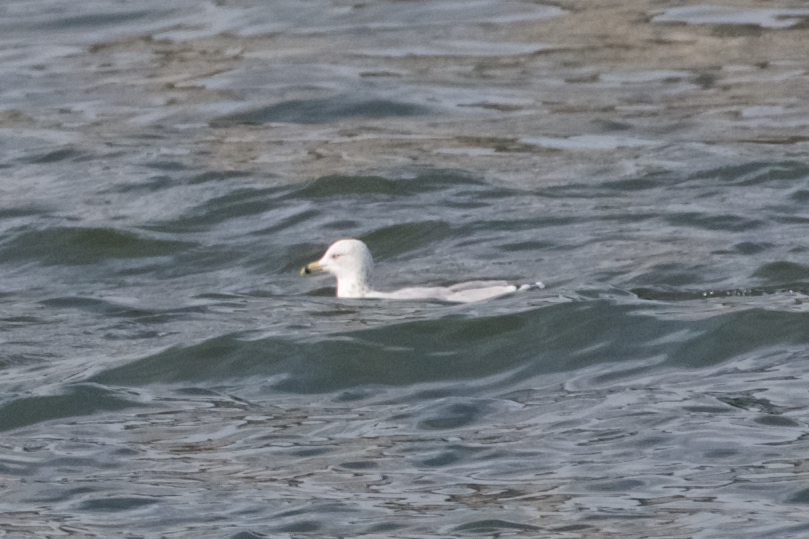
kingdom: Animalia
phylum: Chordata
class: Aves
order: Charadriiformes
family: Laridae
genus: Larus
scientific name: Larus delawarensis
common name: Ring-billed gull
